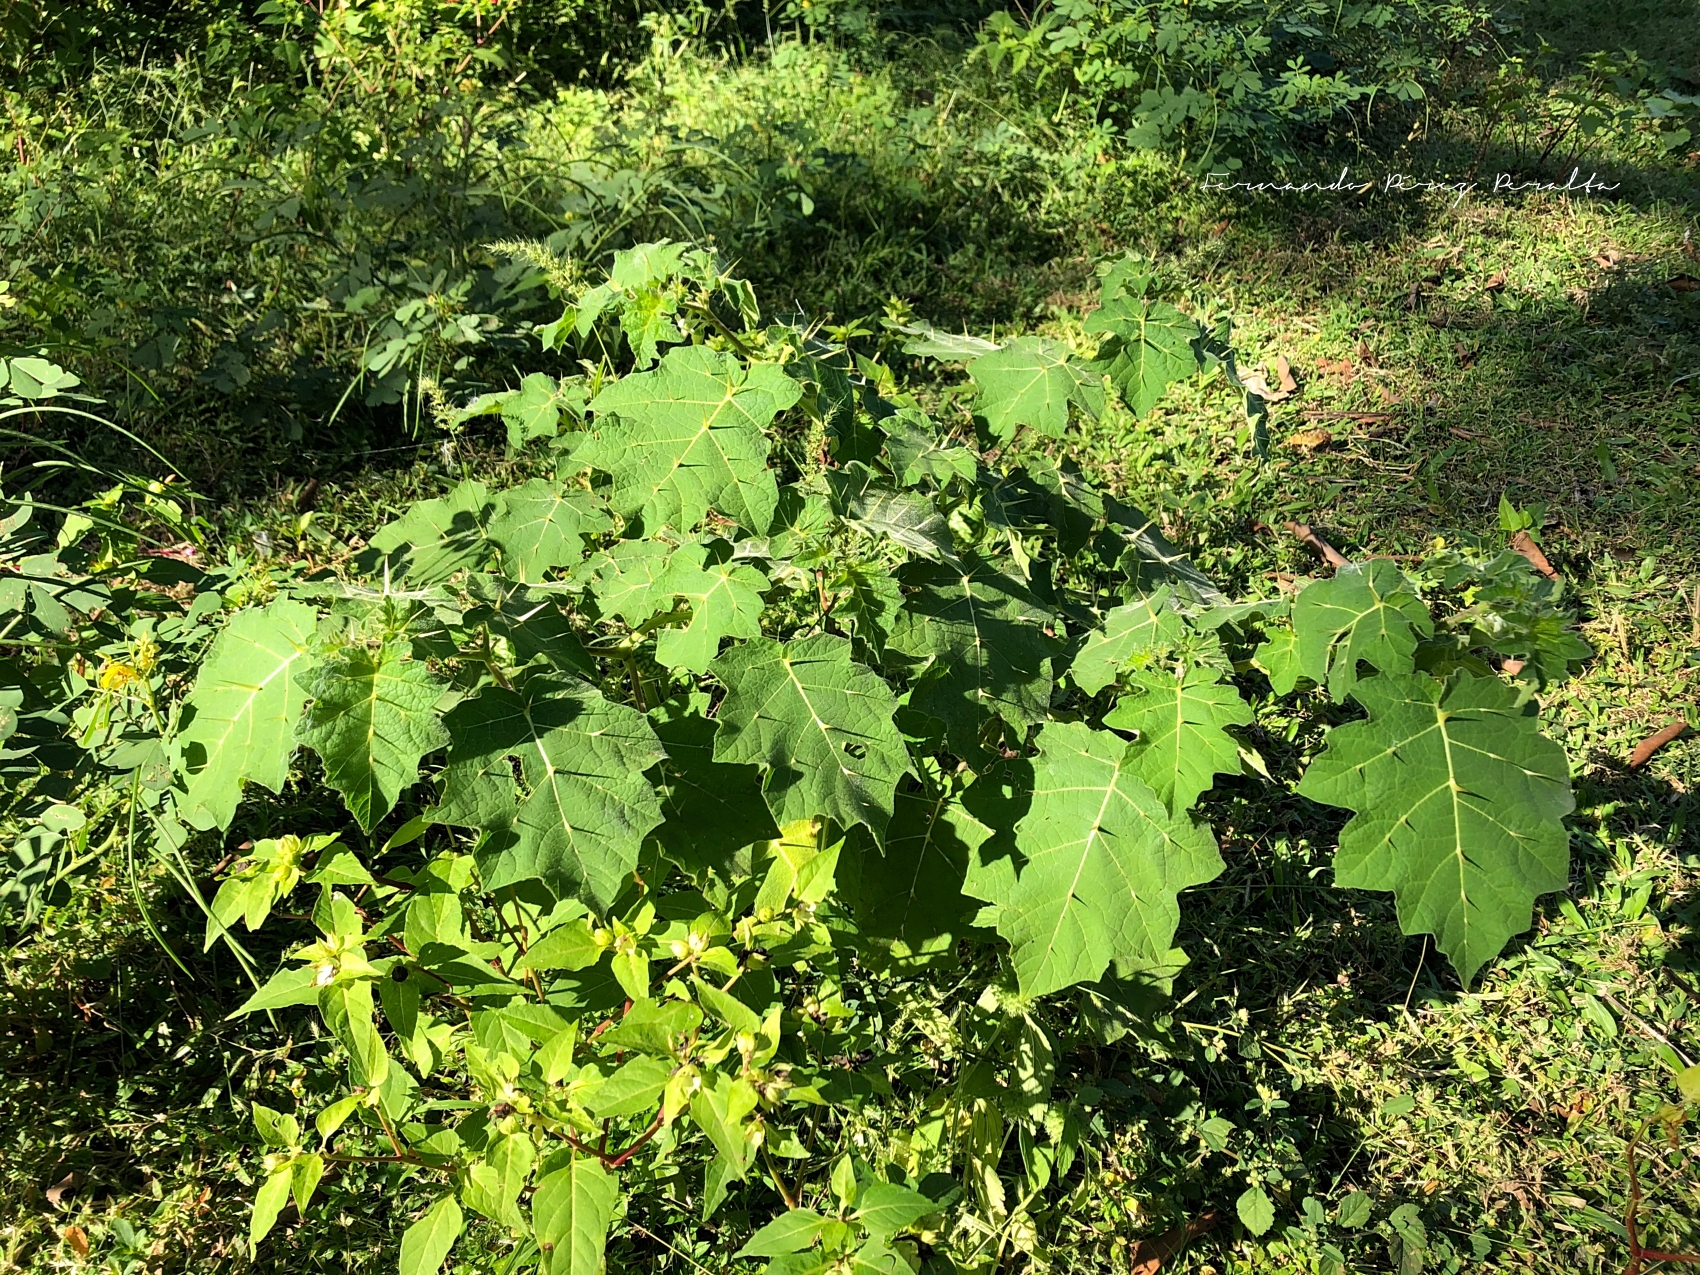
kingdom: Plantae
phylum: Tracheophyta
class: Magnoliopsida
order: Solanales
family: Solanaceae
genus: Solanum
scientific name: Solanum viarum
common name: Tropical soda apple
